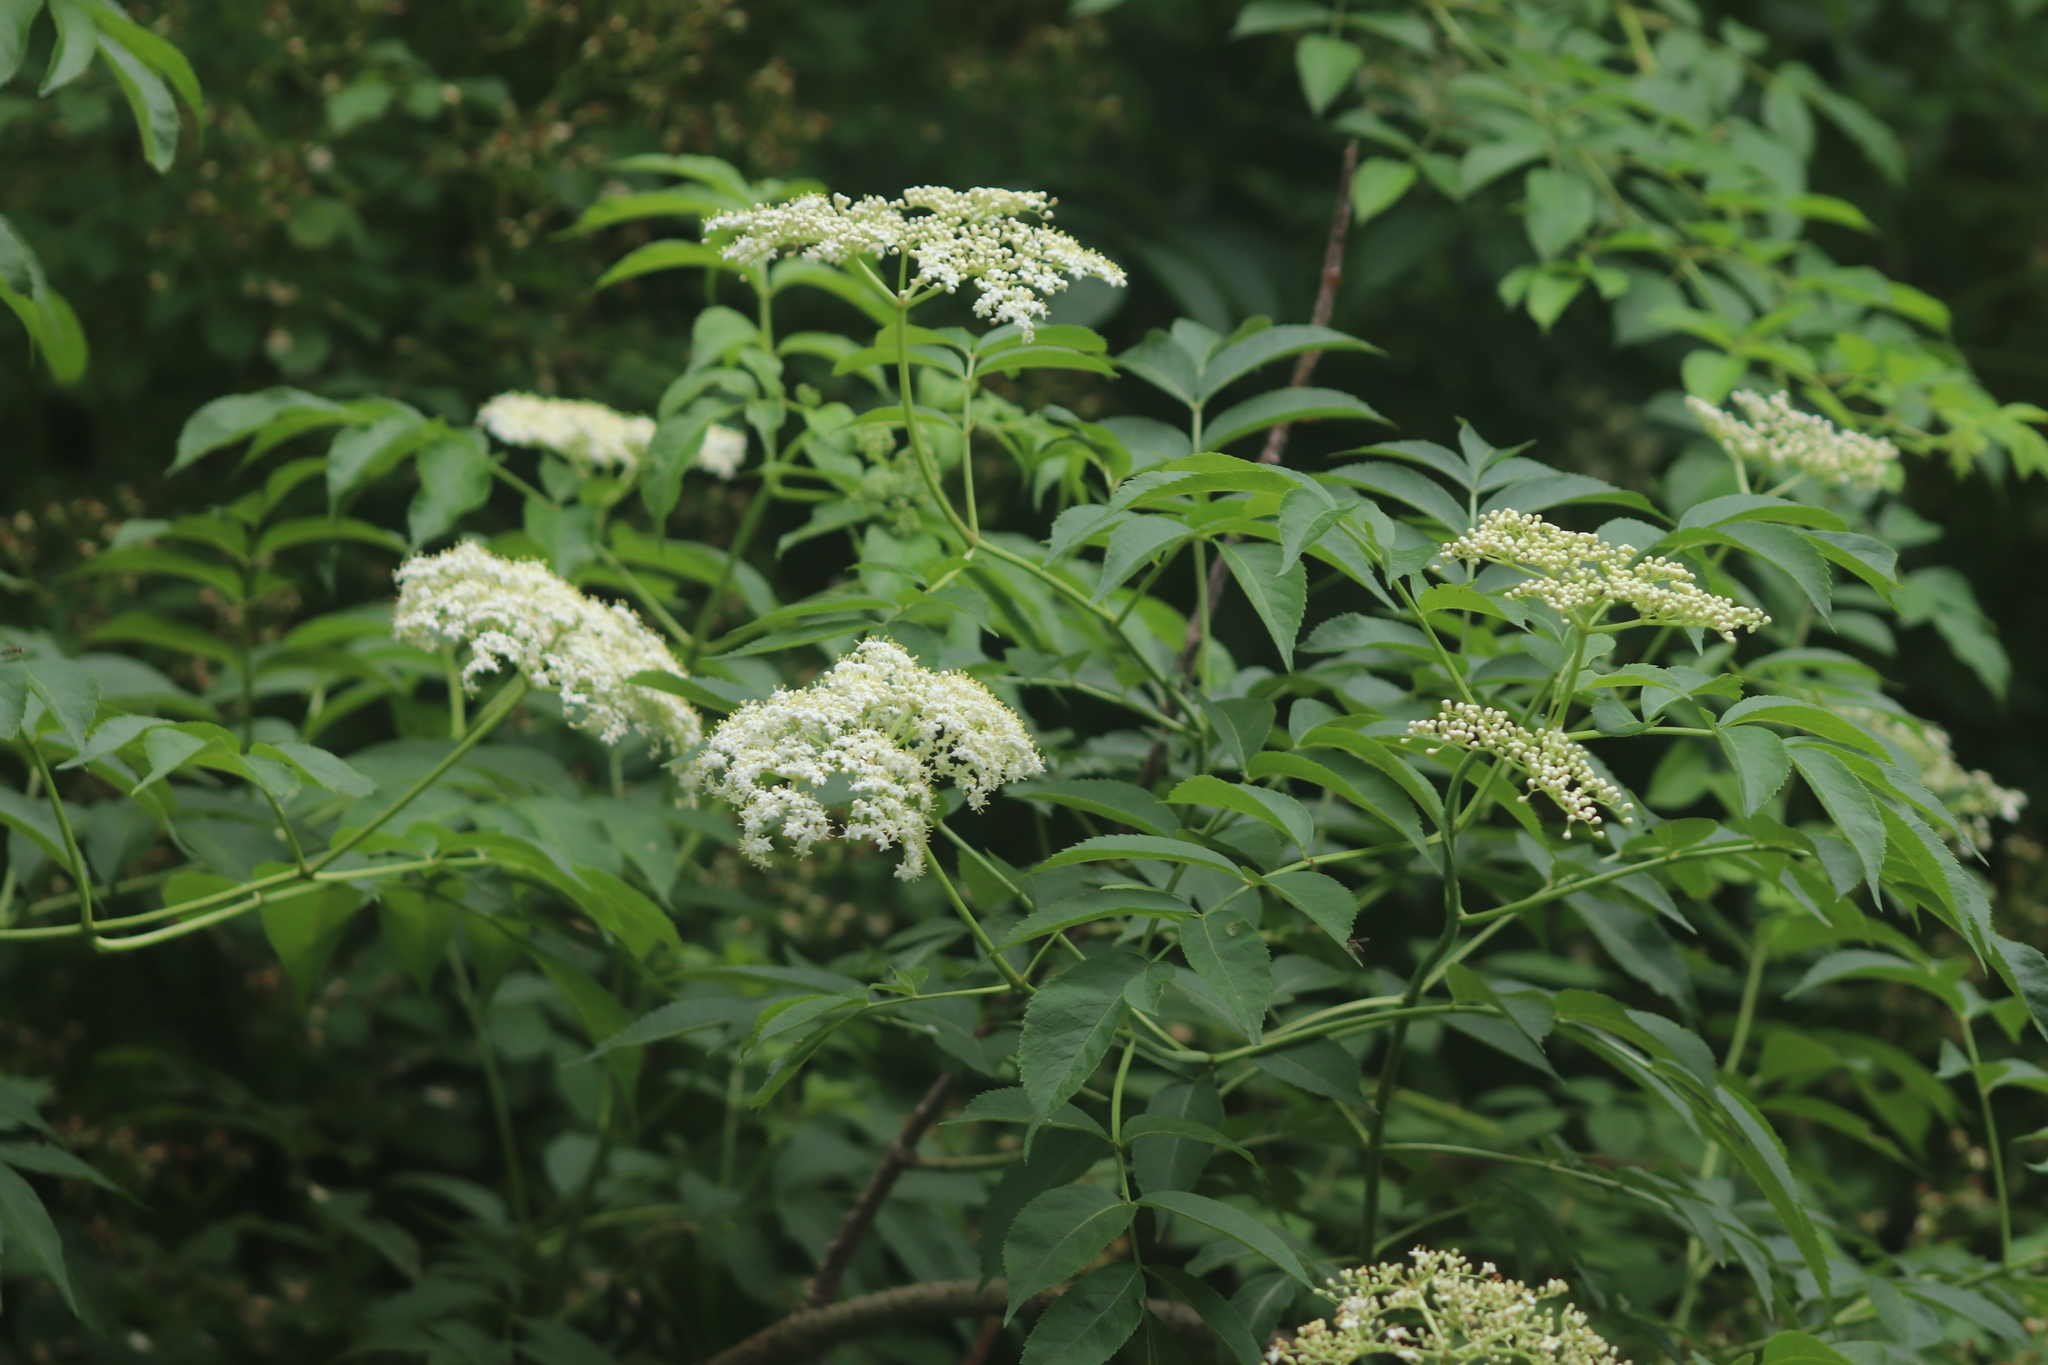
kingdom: Plantae
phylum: Tracheophyta
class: Magnoliopsida
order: Dipsacales
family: Viburnaceae
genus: Sambucus
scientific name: Sambucus canadensis
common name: American elder
